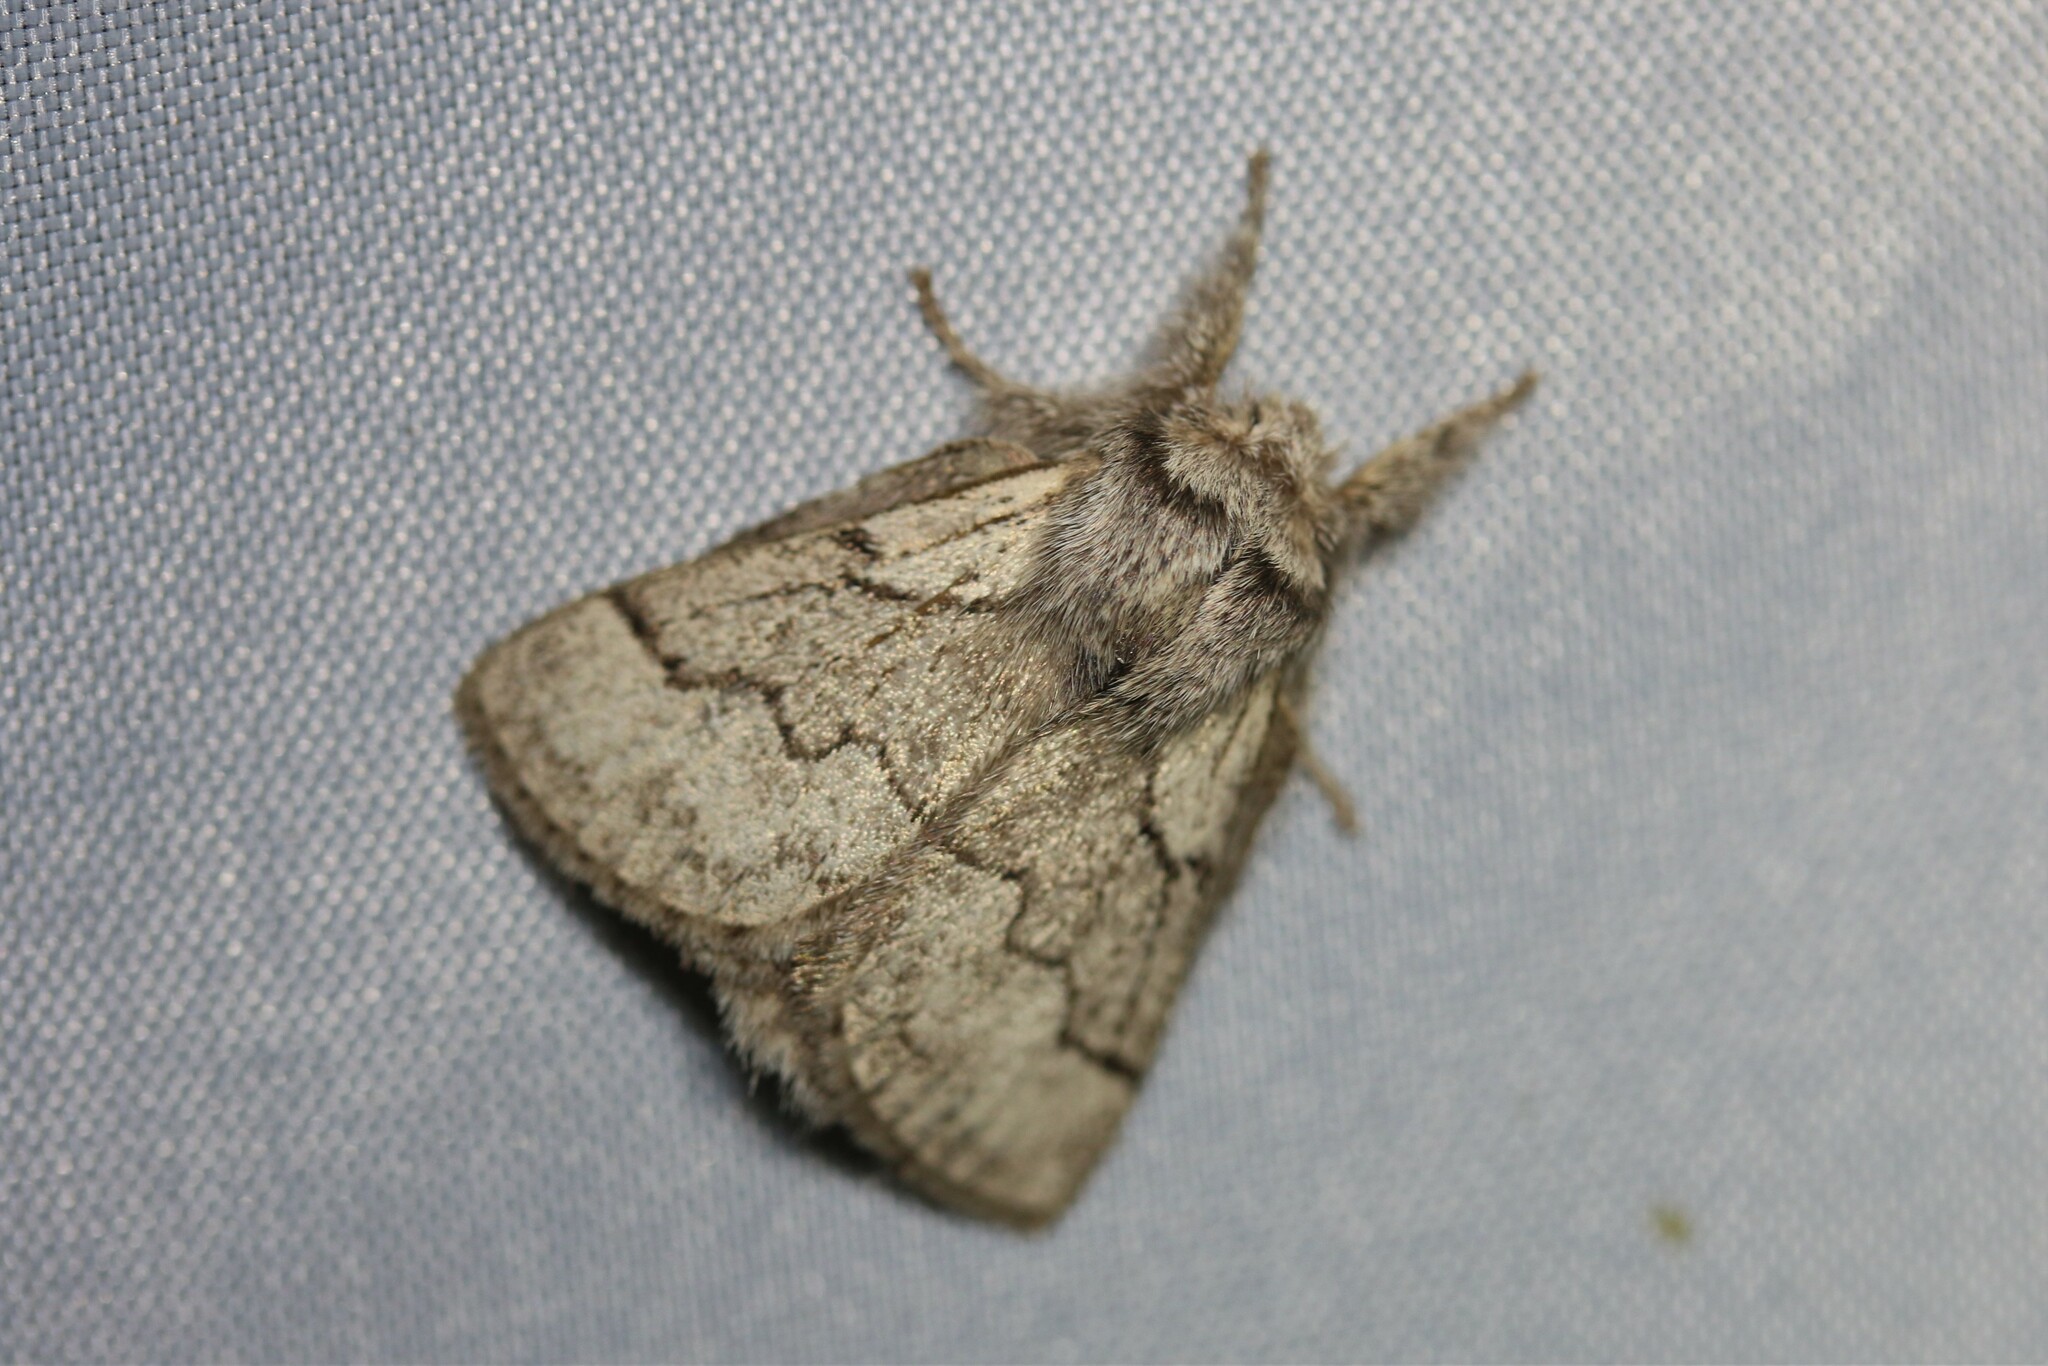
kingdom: Animalia
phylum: Arthropoda
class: Insecta
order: Lepidoptera
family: Lasiocampidae
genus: Trichiura
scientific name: Trichiura crataegi
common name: Pale eggar
